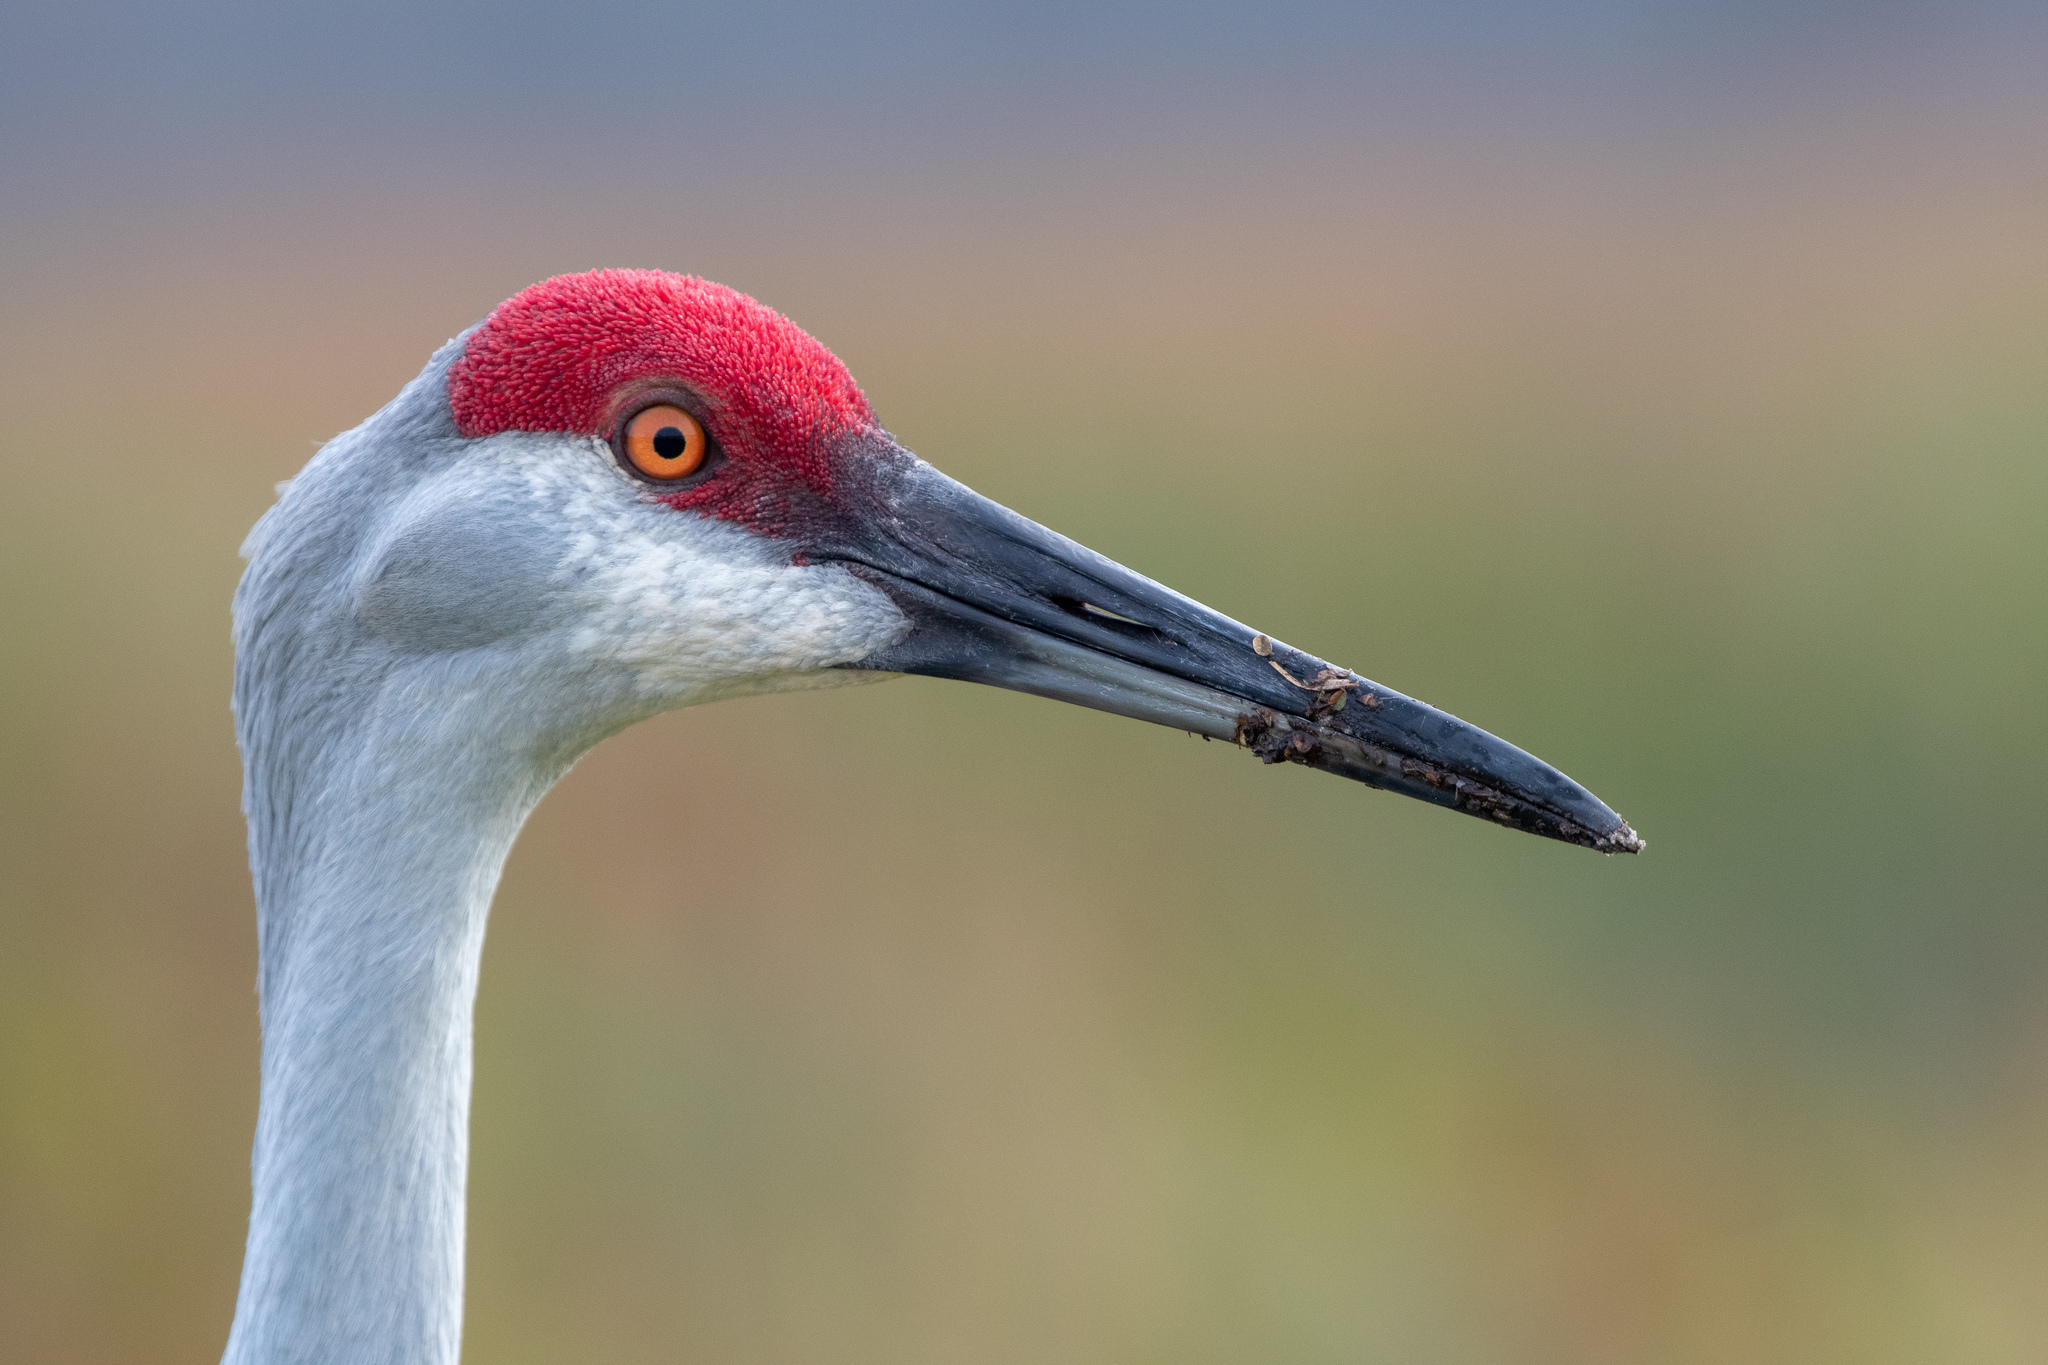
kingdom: Animalia
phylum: Chordata
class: Aves
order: Gruiformes
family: Gruidae
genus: Grus
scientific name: Grus canadensis
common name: Sandhill crane
